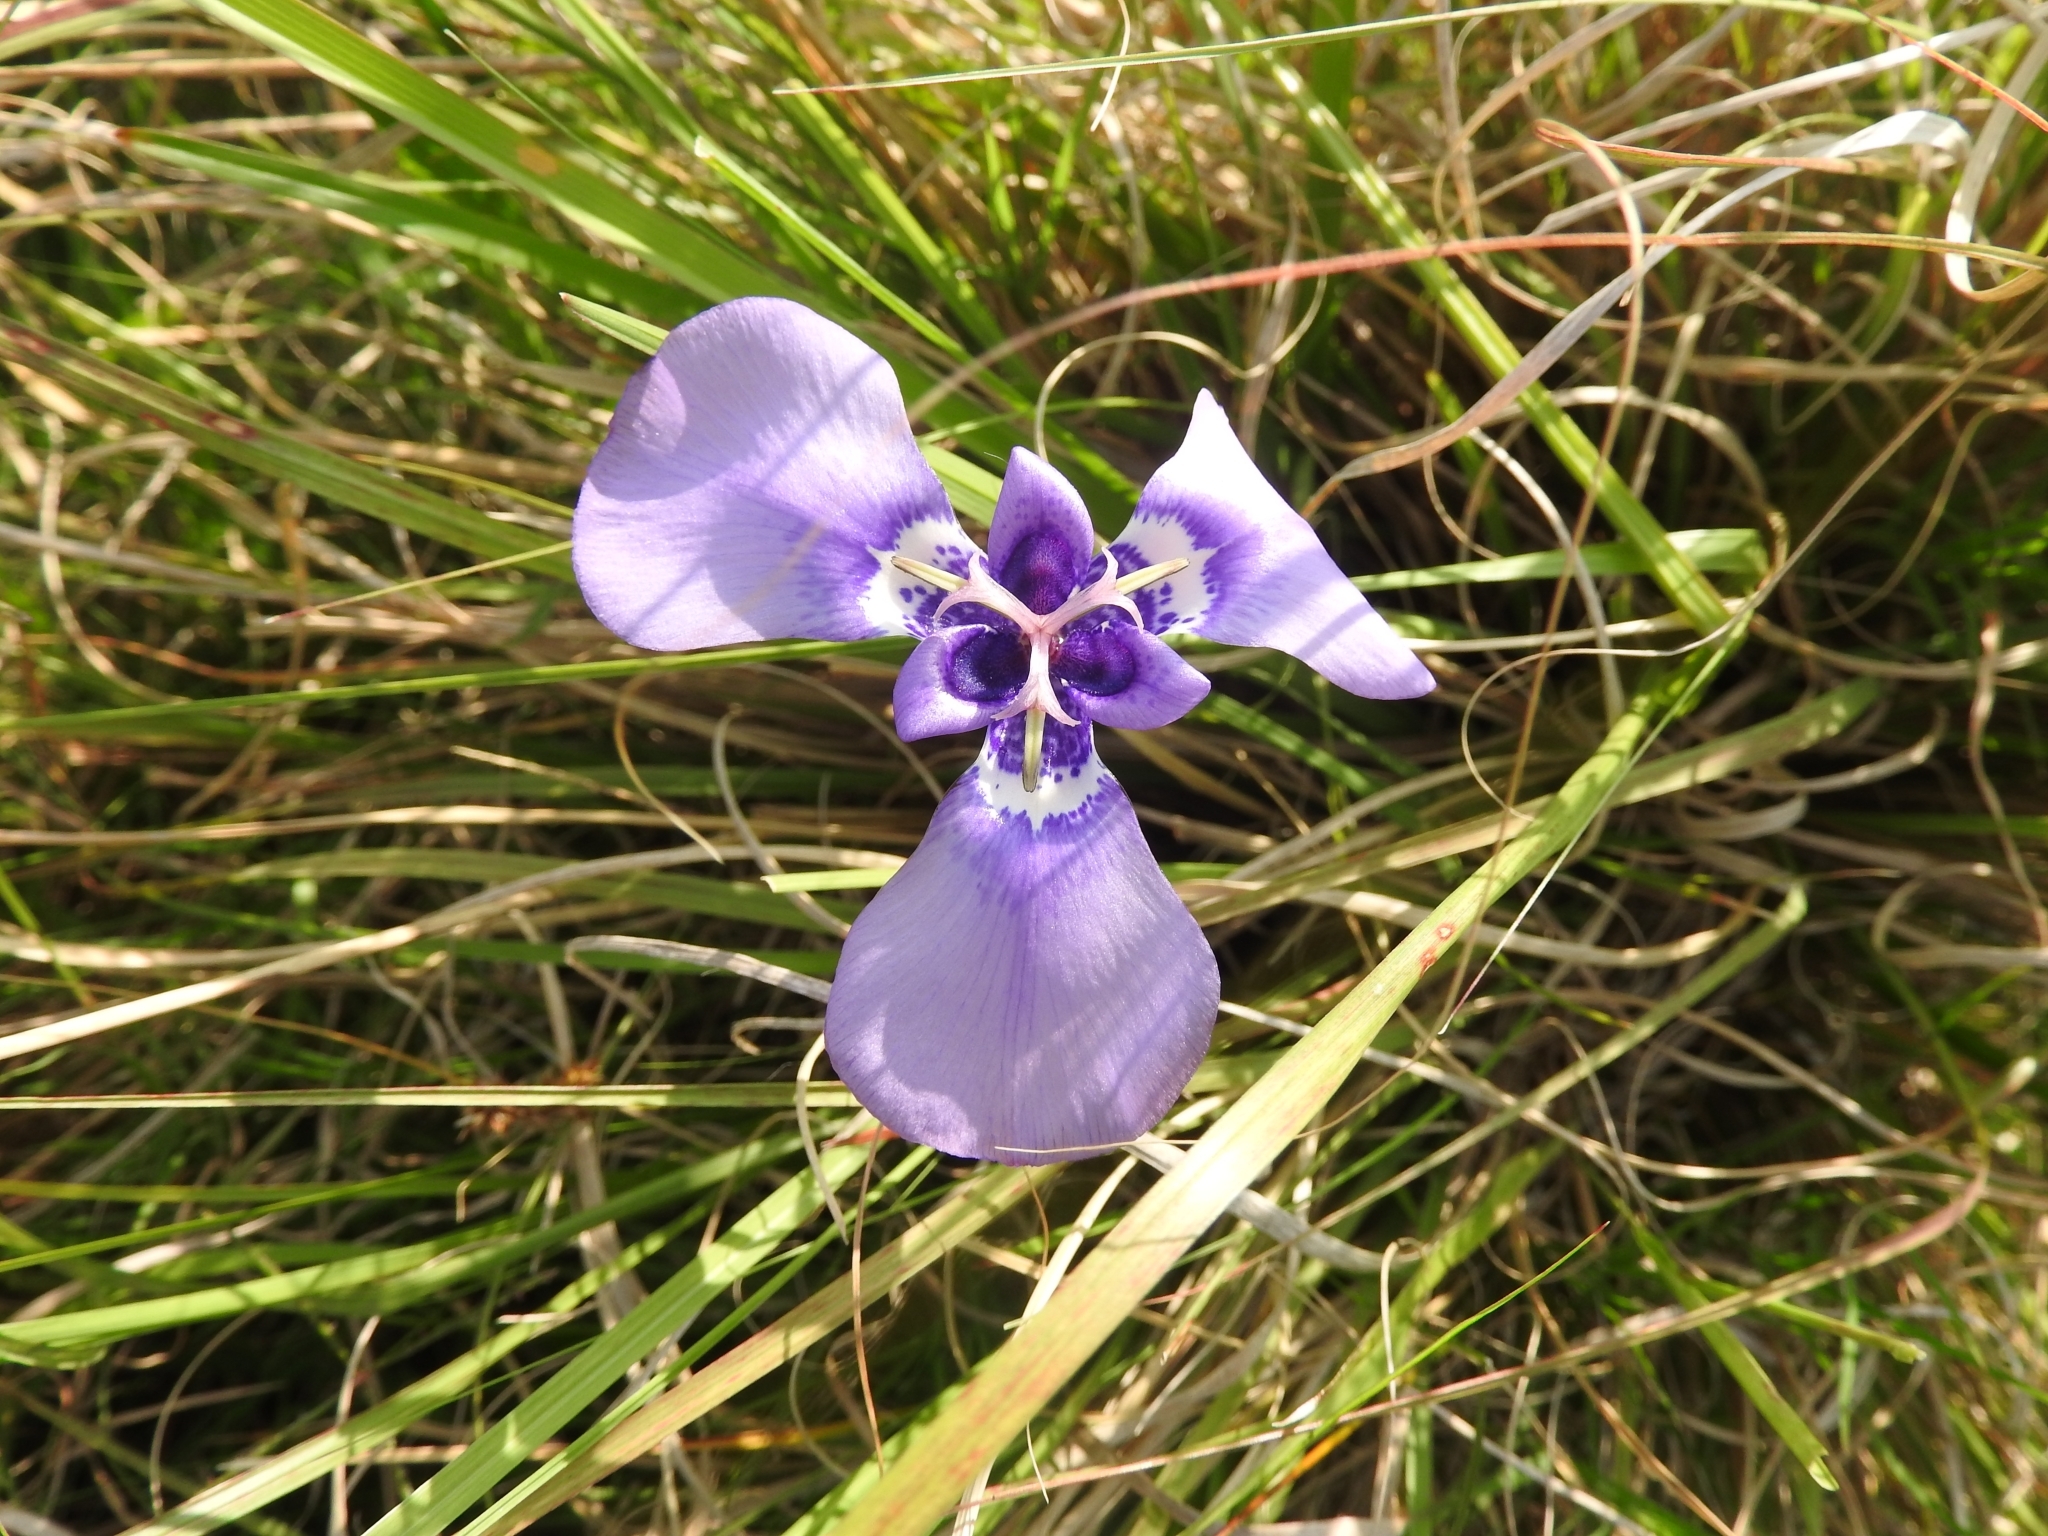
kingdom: Plantae
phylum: Tracheophyta
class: Liliopsida
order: Asparagales
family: Iridaceae
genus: Herbertia
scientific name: Herbertia lahue
